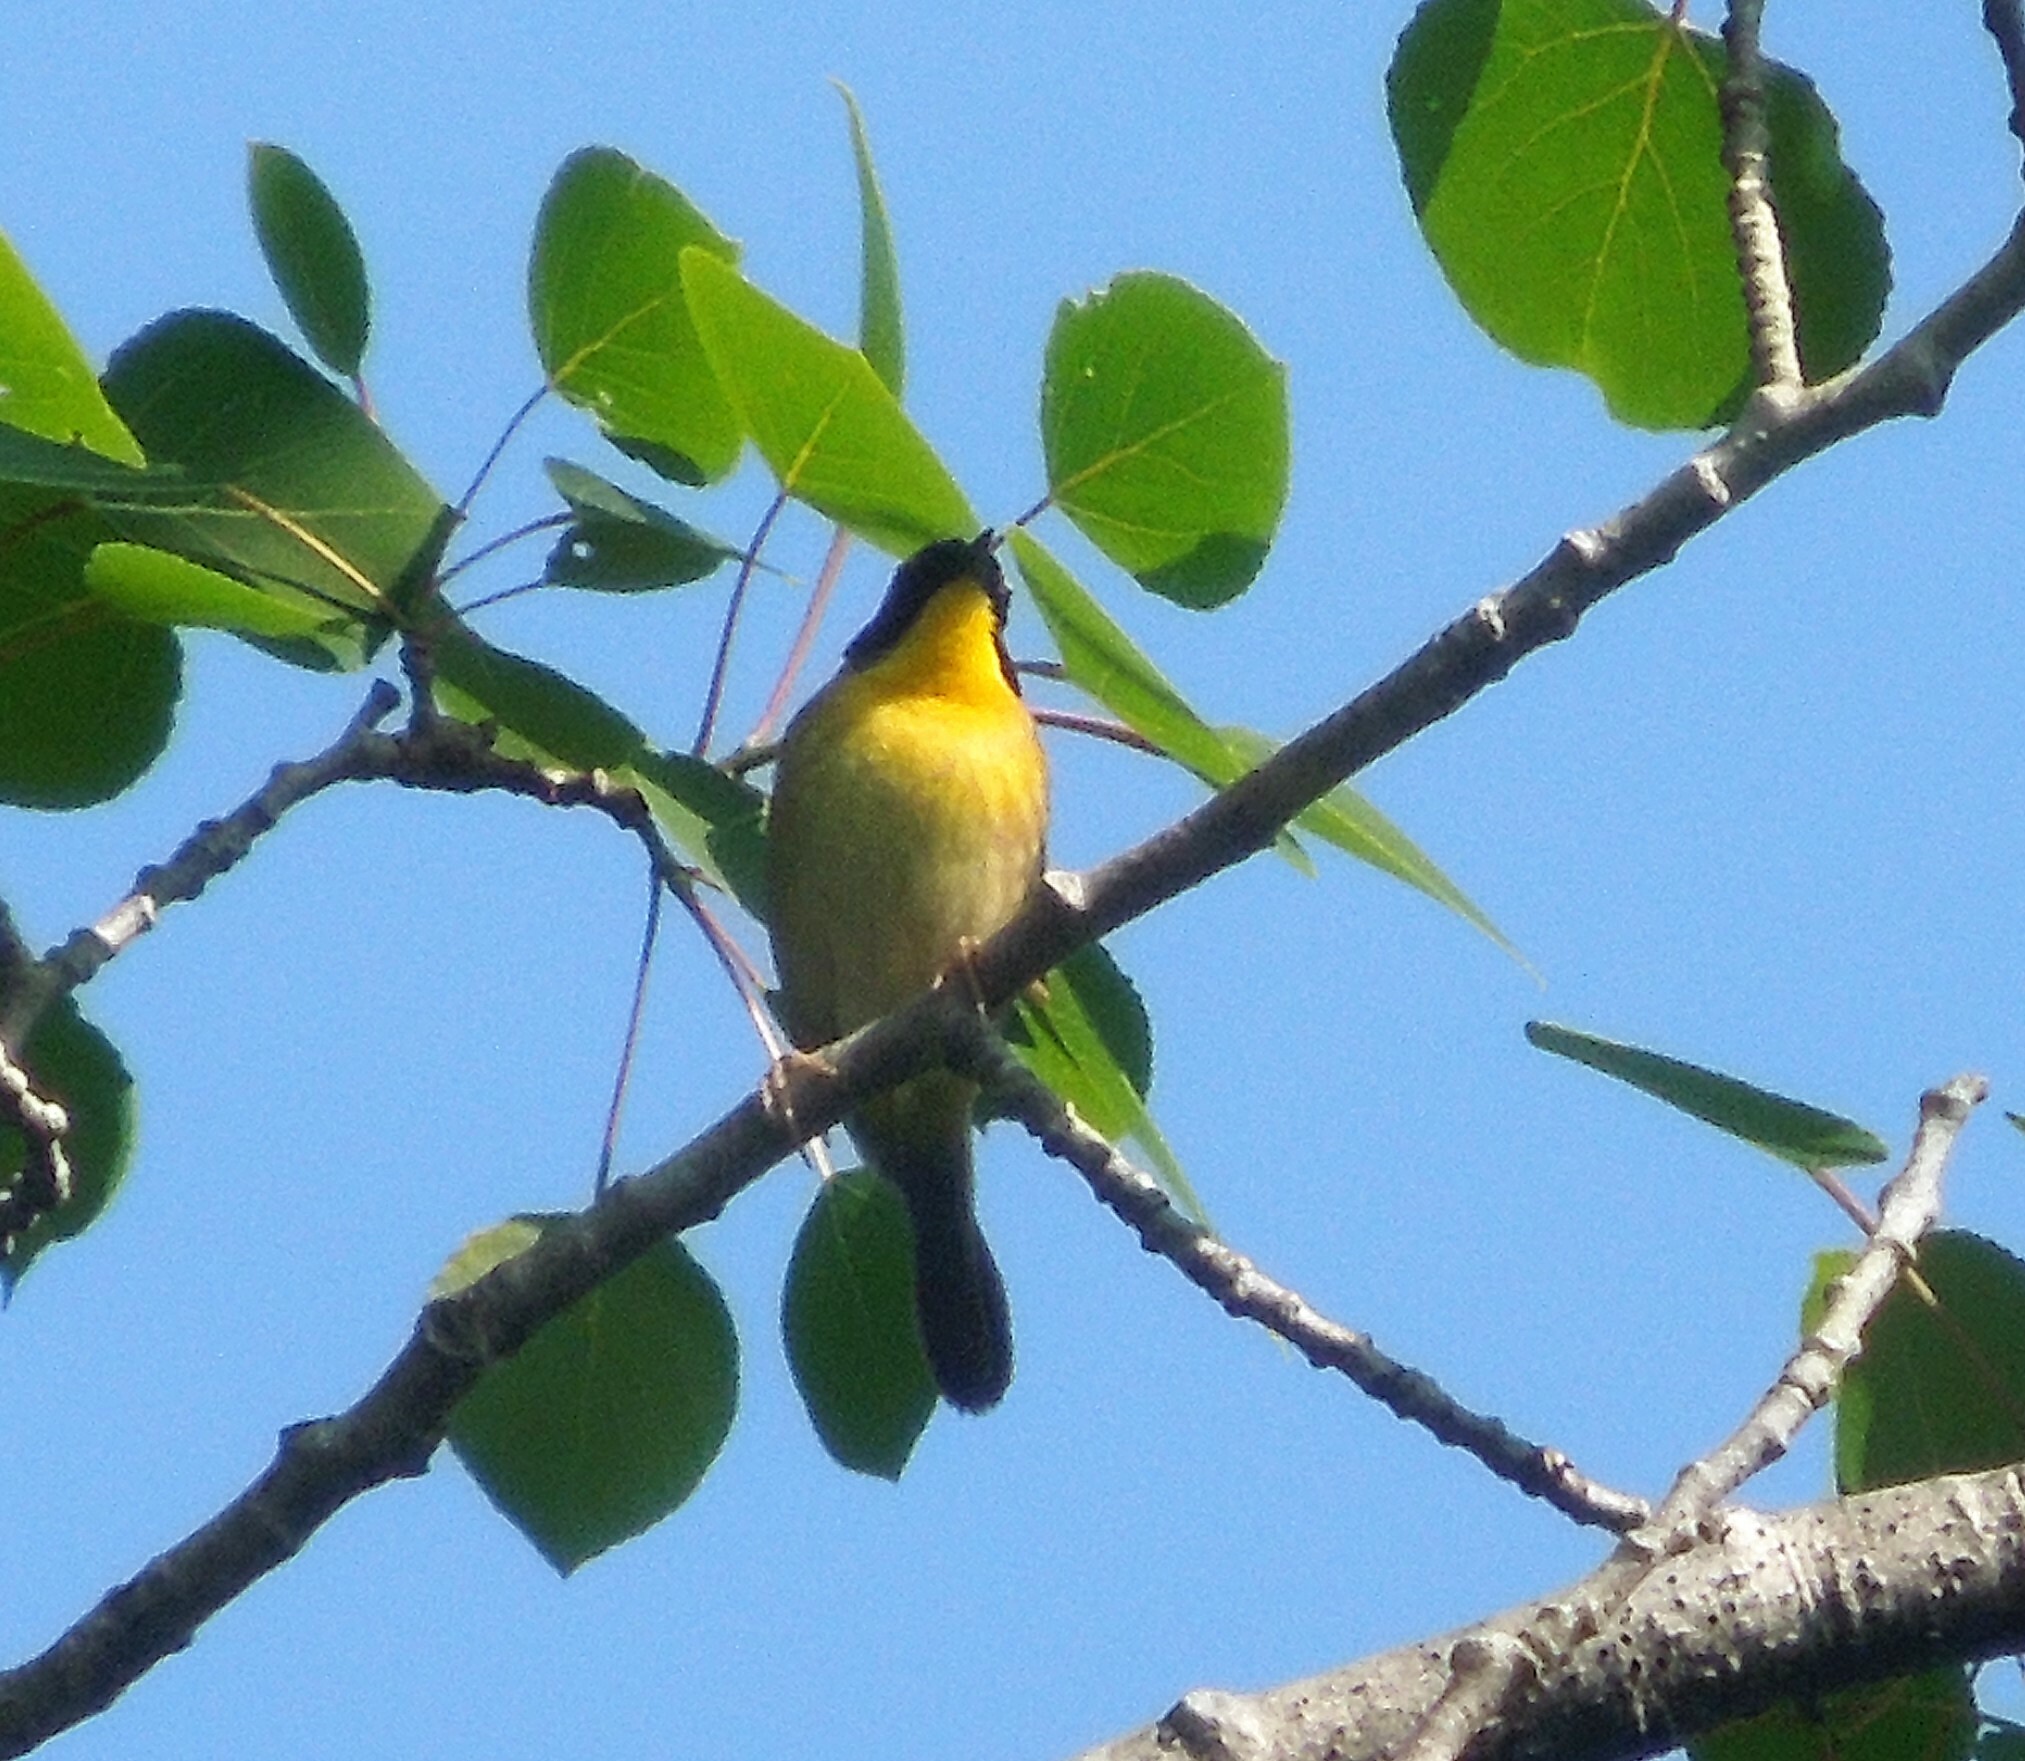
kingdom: Animalia
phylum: Chordata
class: Aves
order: Passeriformes
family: Parulidae
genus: Geothlypis
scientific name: Geothlypis trichas
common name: Common yellowthroat
